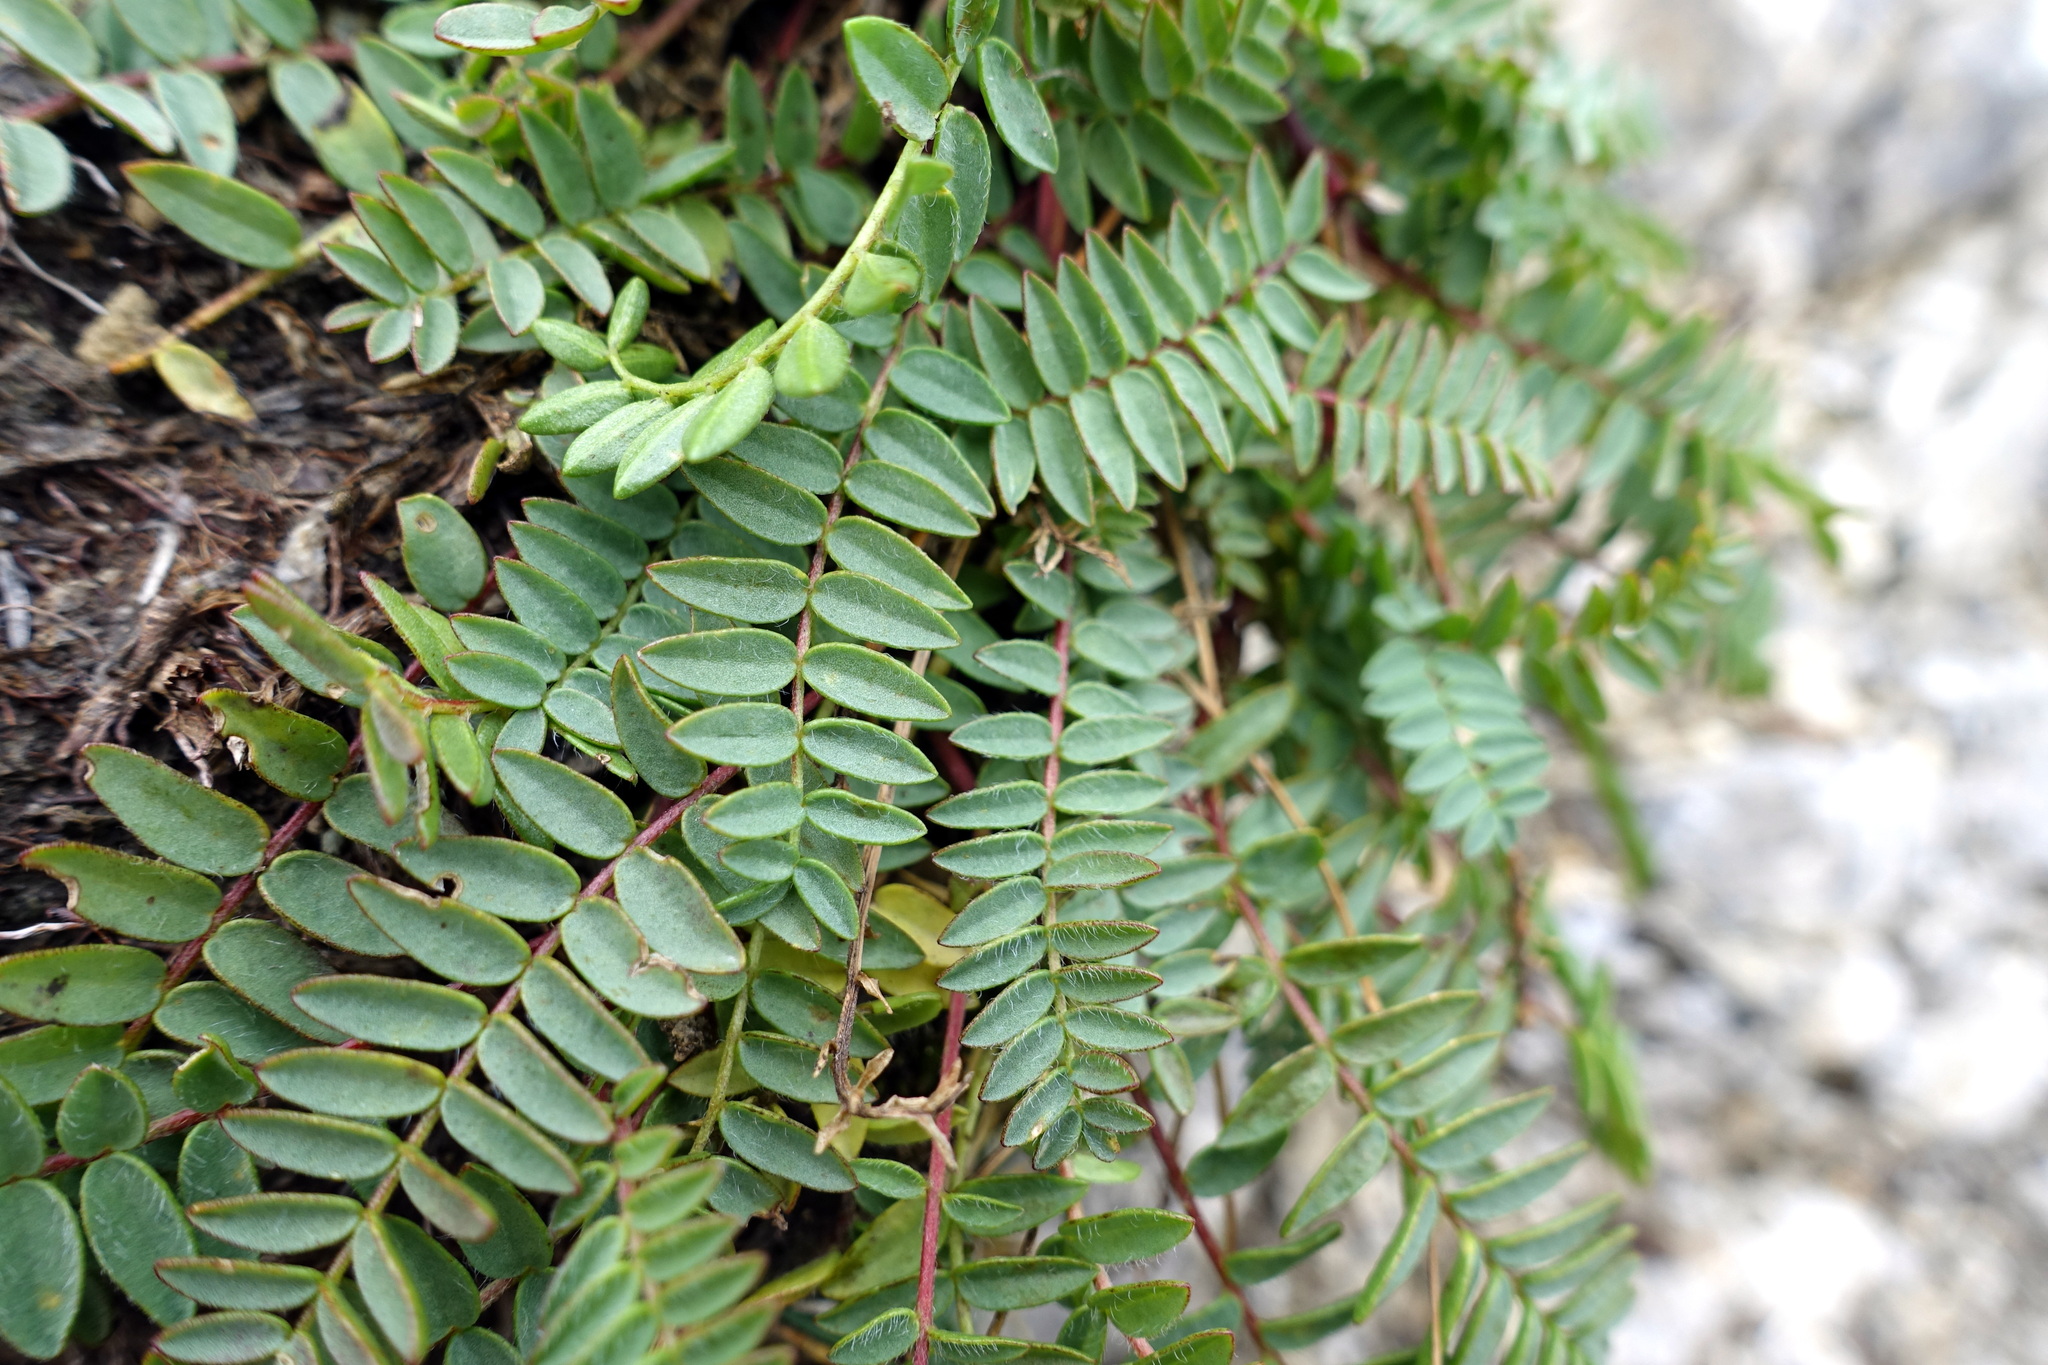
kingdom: Plantae
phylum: Tracheophyta
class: Magnoliopsida
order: Fabales
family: Fabaceae
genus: Oxytropis
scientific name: Oxytropis montana
